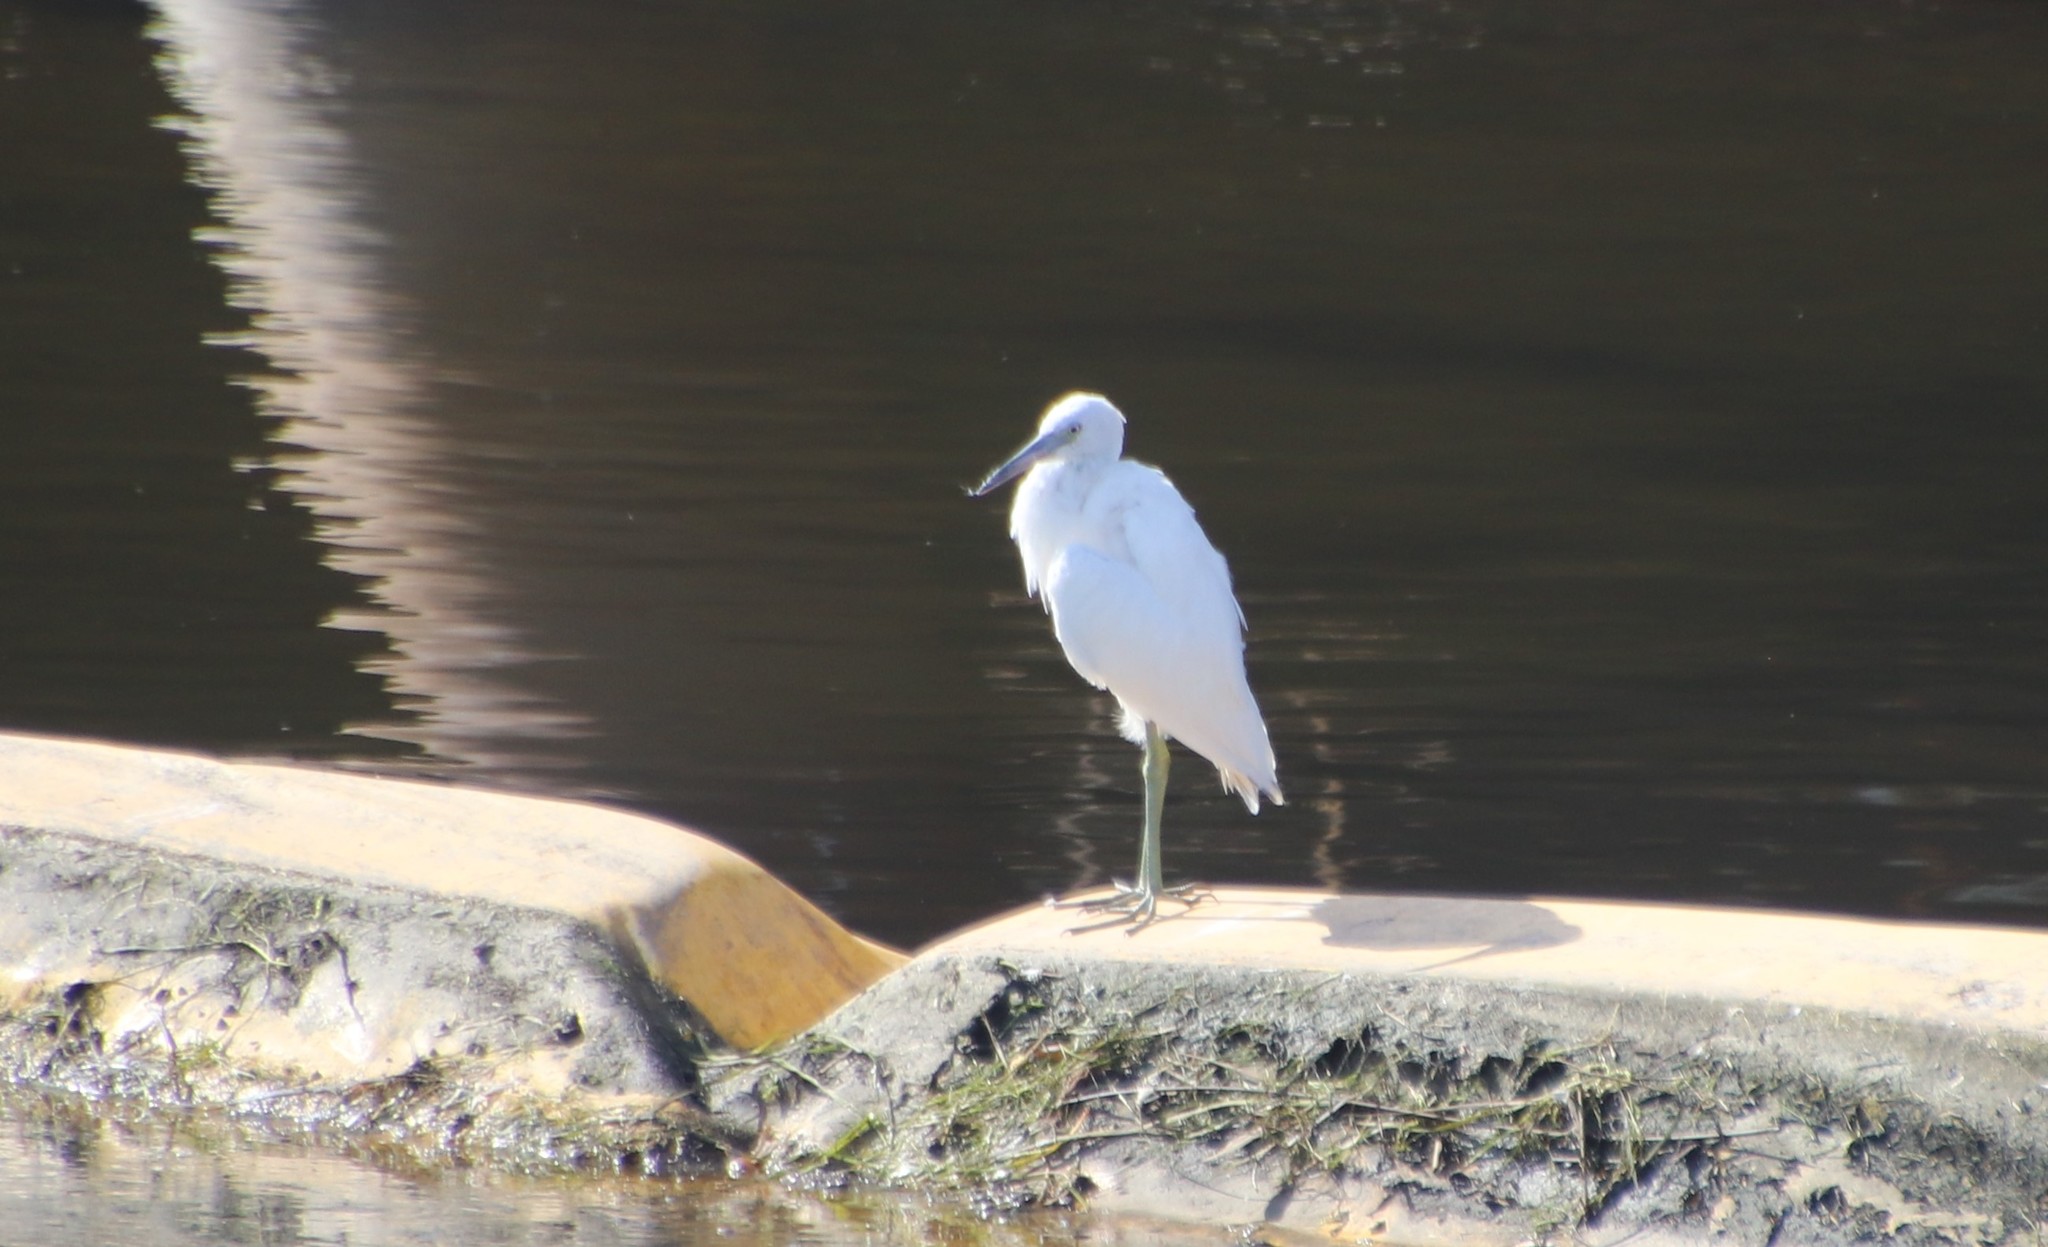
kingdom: Animalia
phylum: Chordata
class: Aves
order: Pelecaniformes
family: Ardeidae
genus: Egretta
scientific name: Egretta caerulea
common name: Little blue heron
